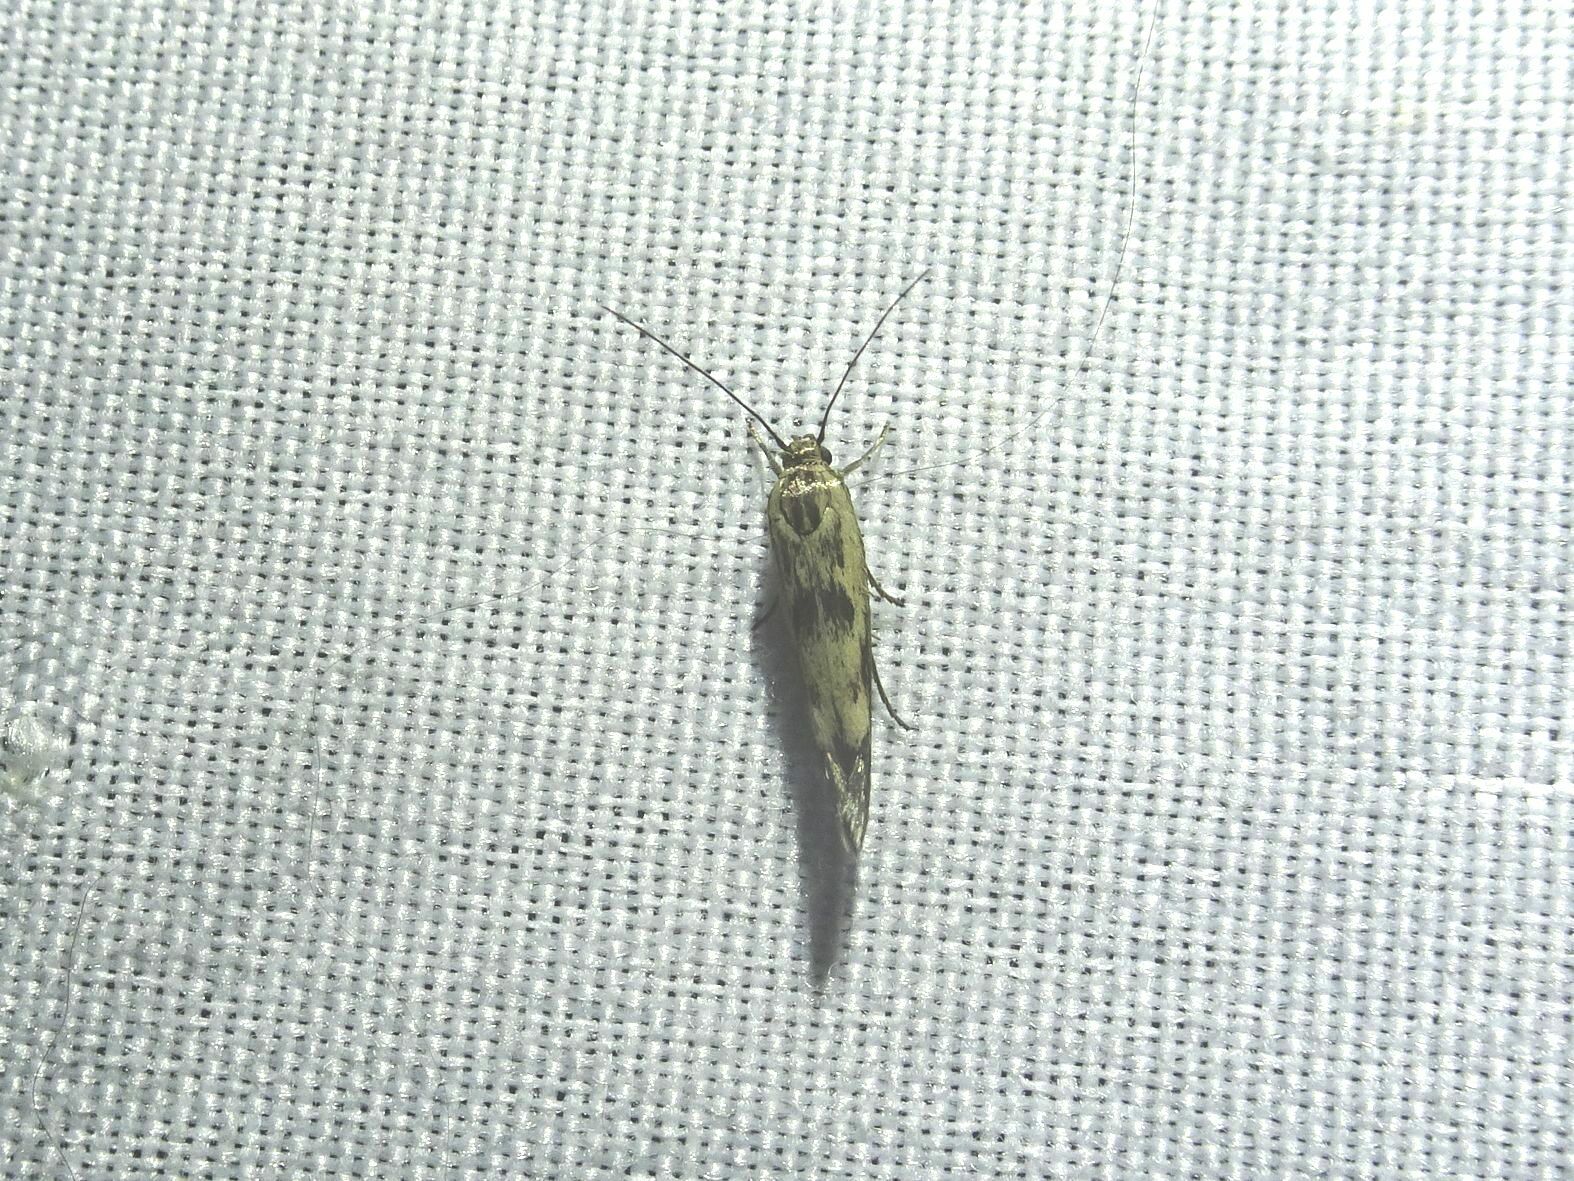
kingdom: Animalia
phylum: Arthropoda
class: Insecta
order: Lepidoptera
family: Scythrididae
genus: Scythris
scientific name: Scythris limbella
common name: Goosefoot owlet
